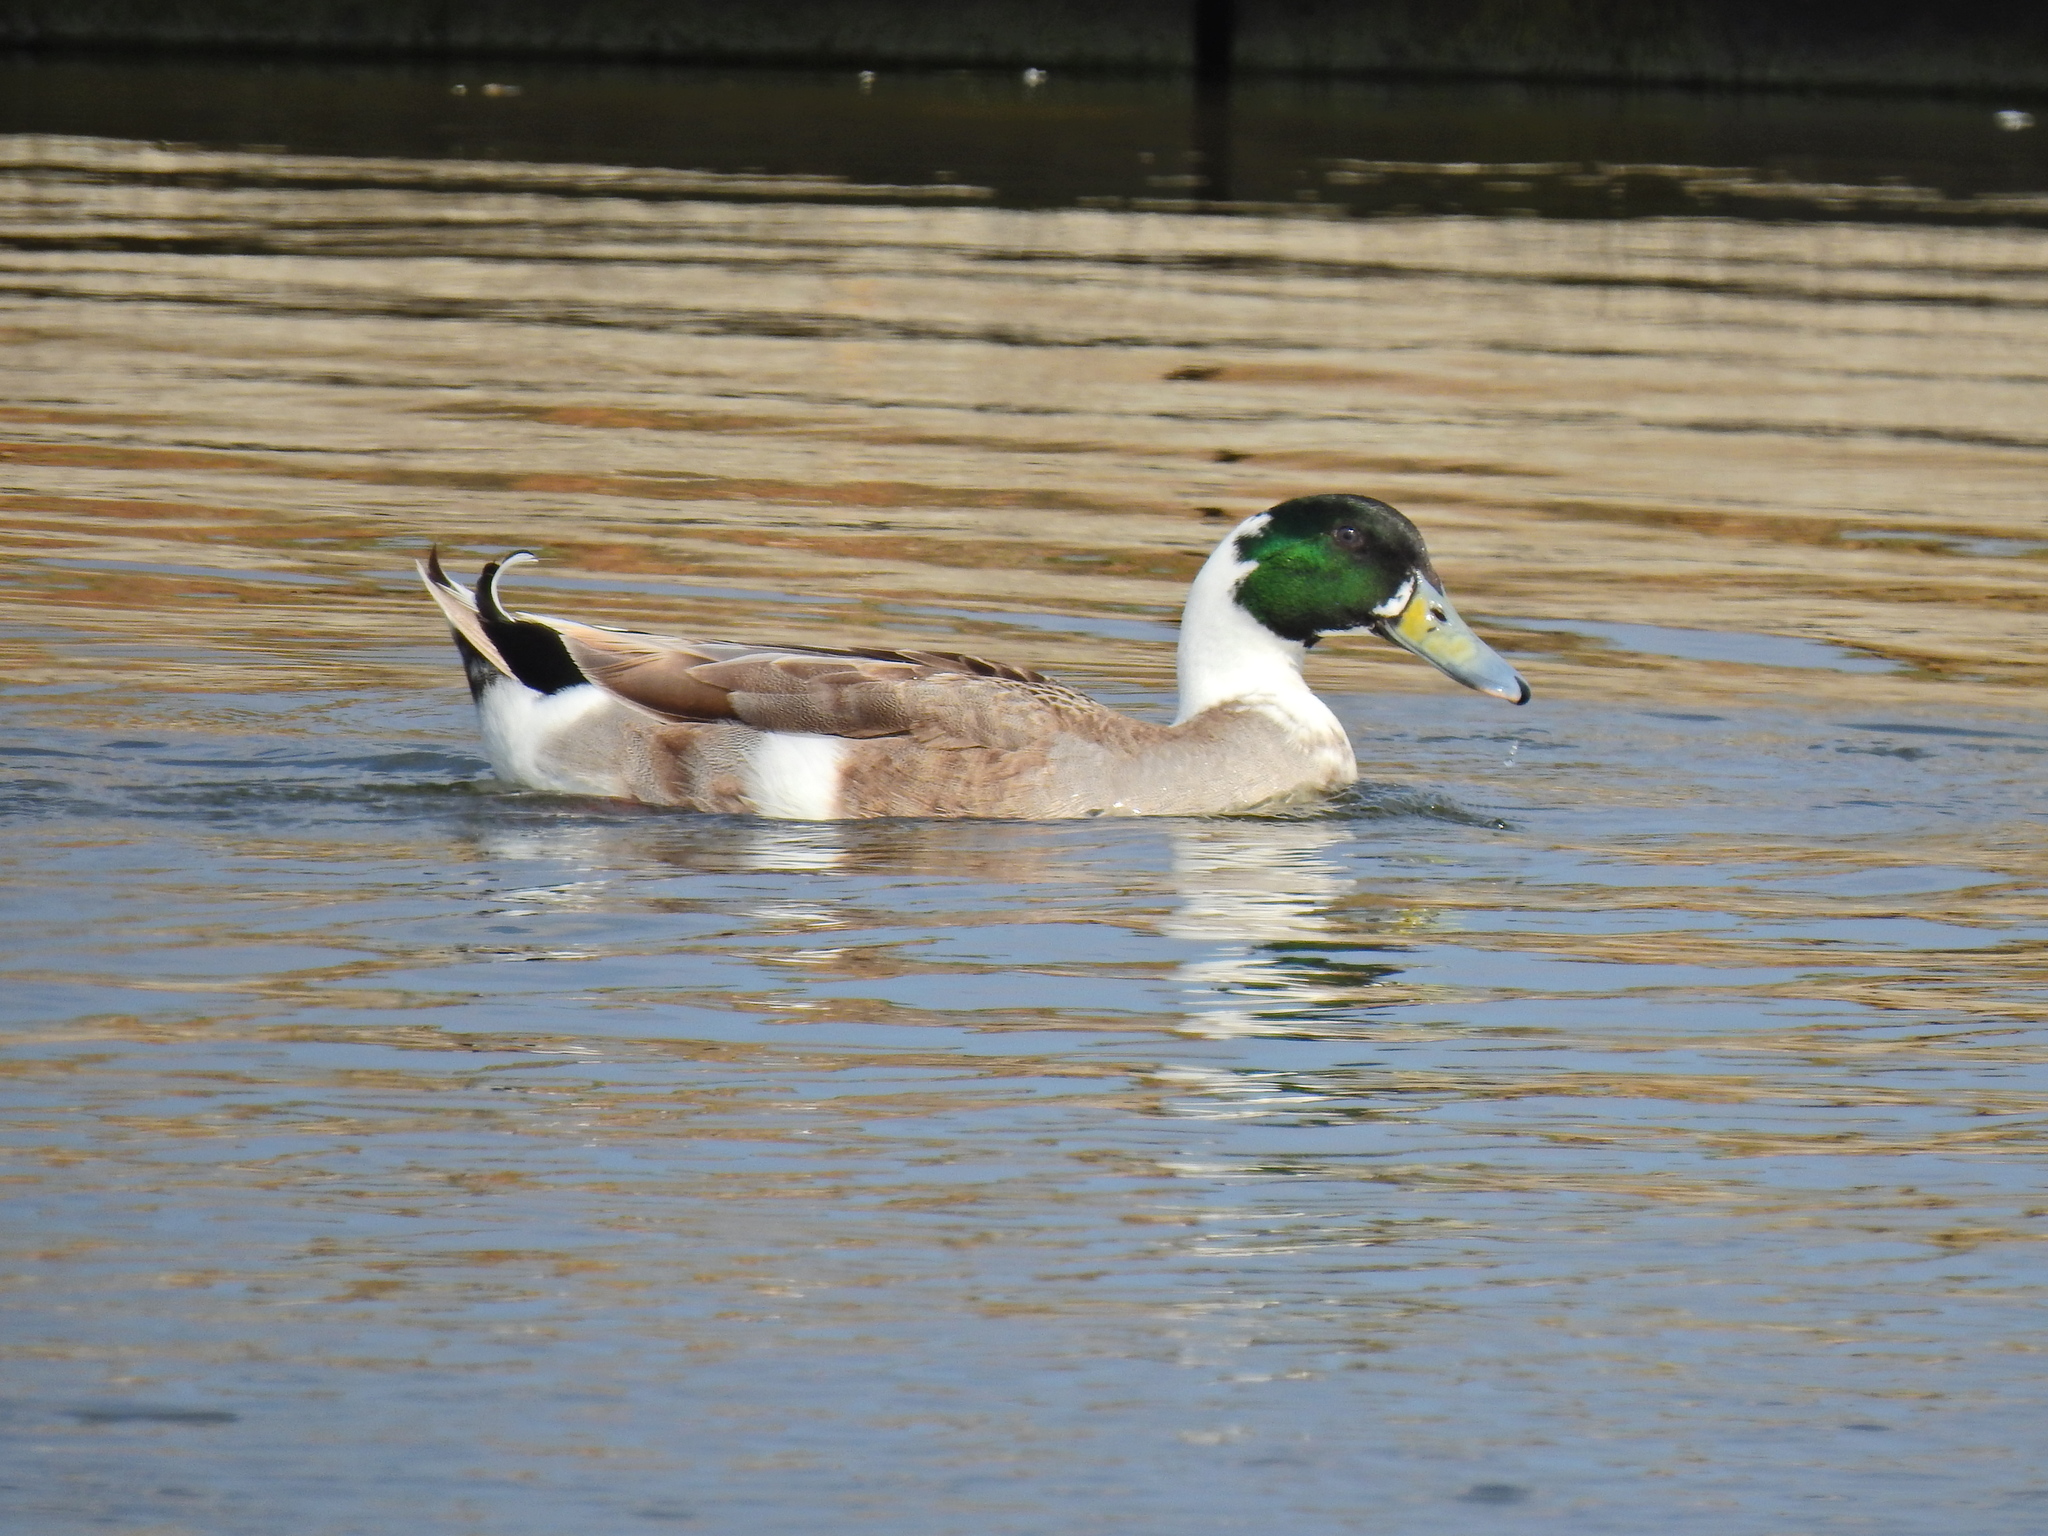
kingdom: Animalia
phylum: Chordata
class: Aves
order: Anseriformes
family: Anatidae
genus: Anas
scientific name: Anas platyrhynchos
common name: Mallard
